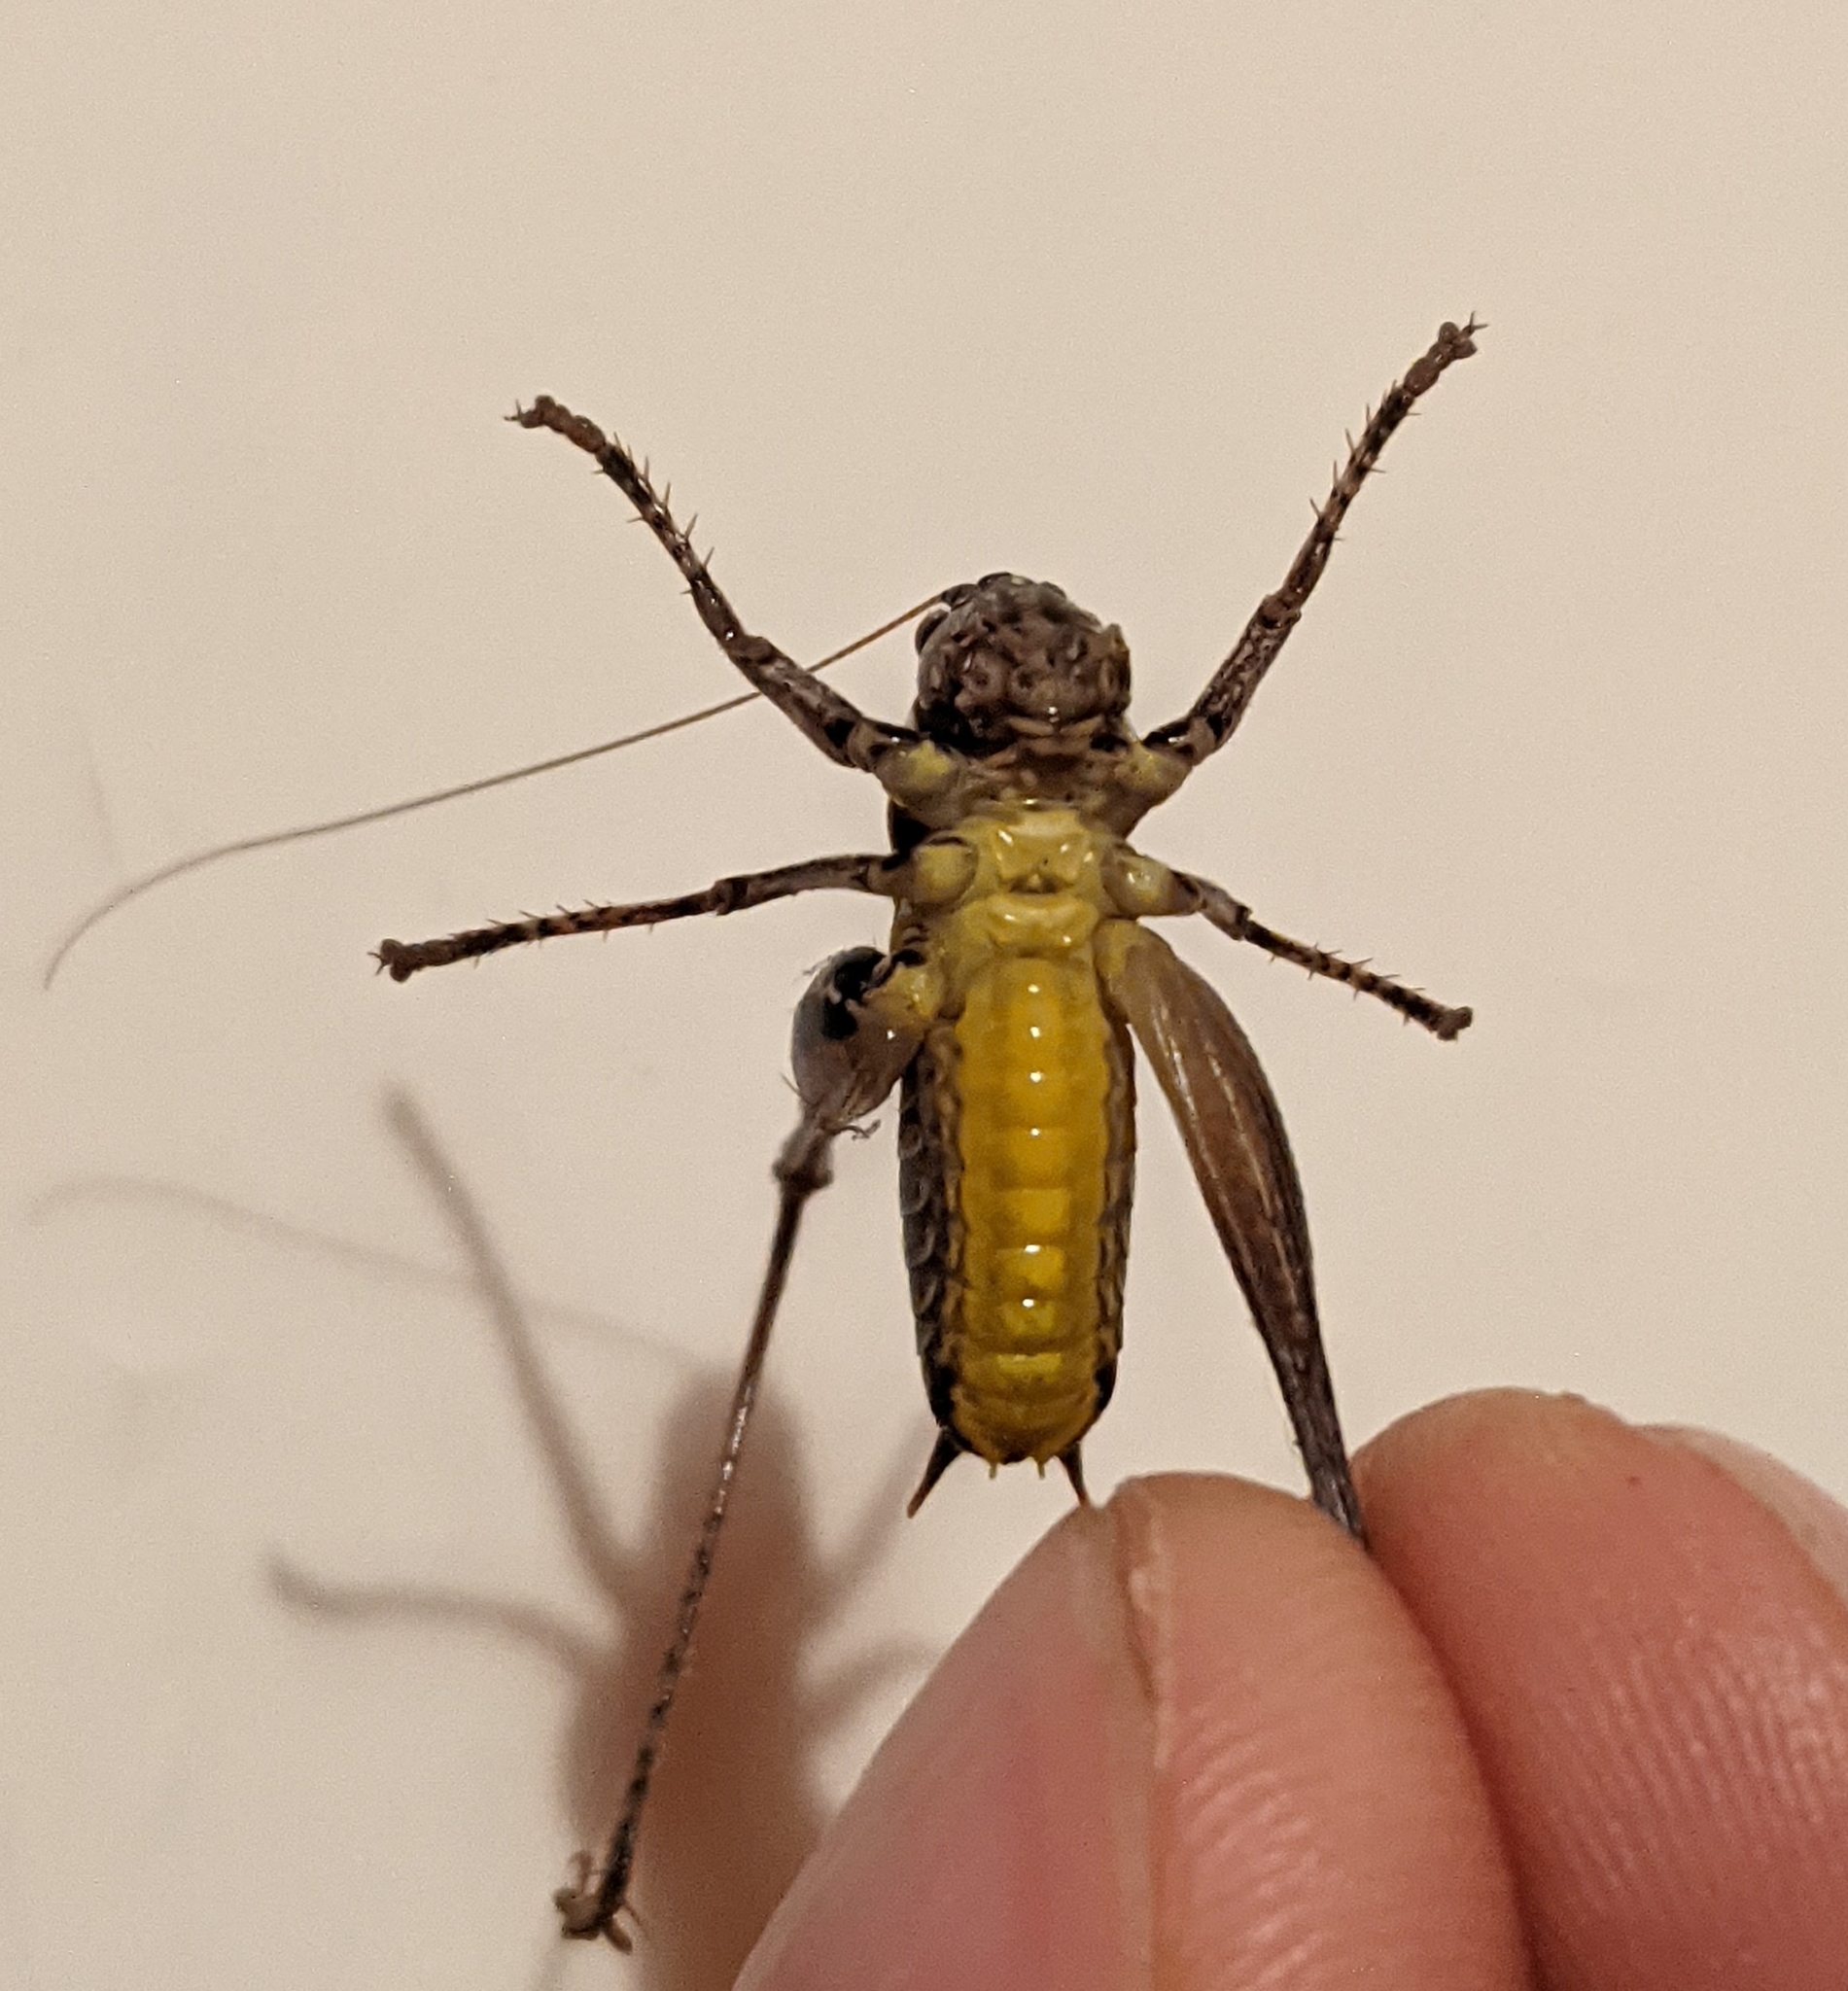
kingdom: Animalia
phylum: Arthropoda
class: Insecta
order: Orthoptera
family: Tettigoniidae
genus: Pholidoptera
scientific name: Pholidoptera griseoaptera
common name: Dark bush-cricket
